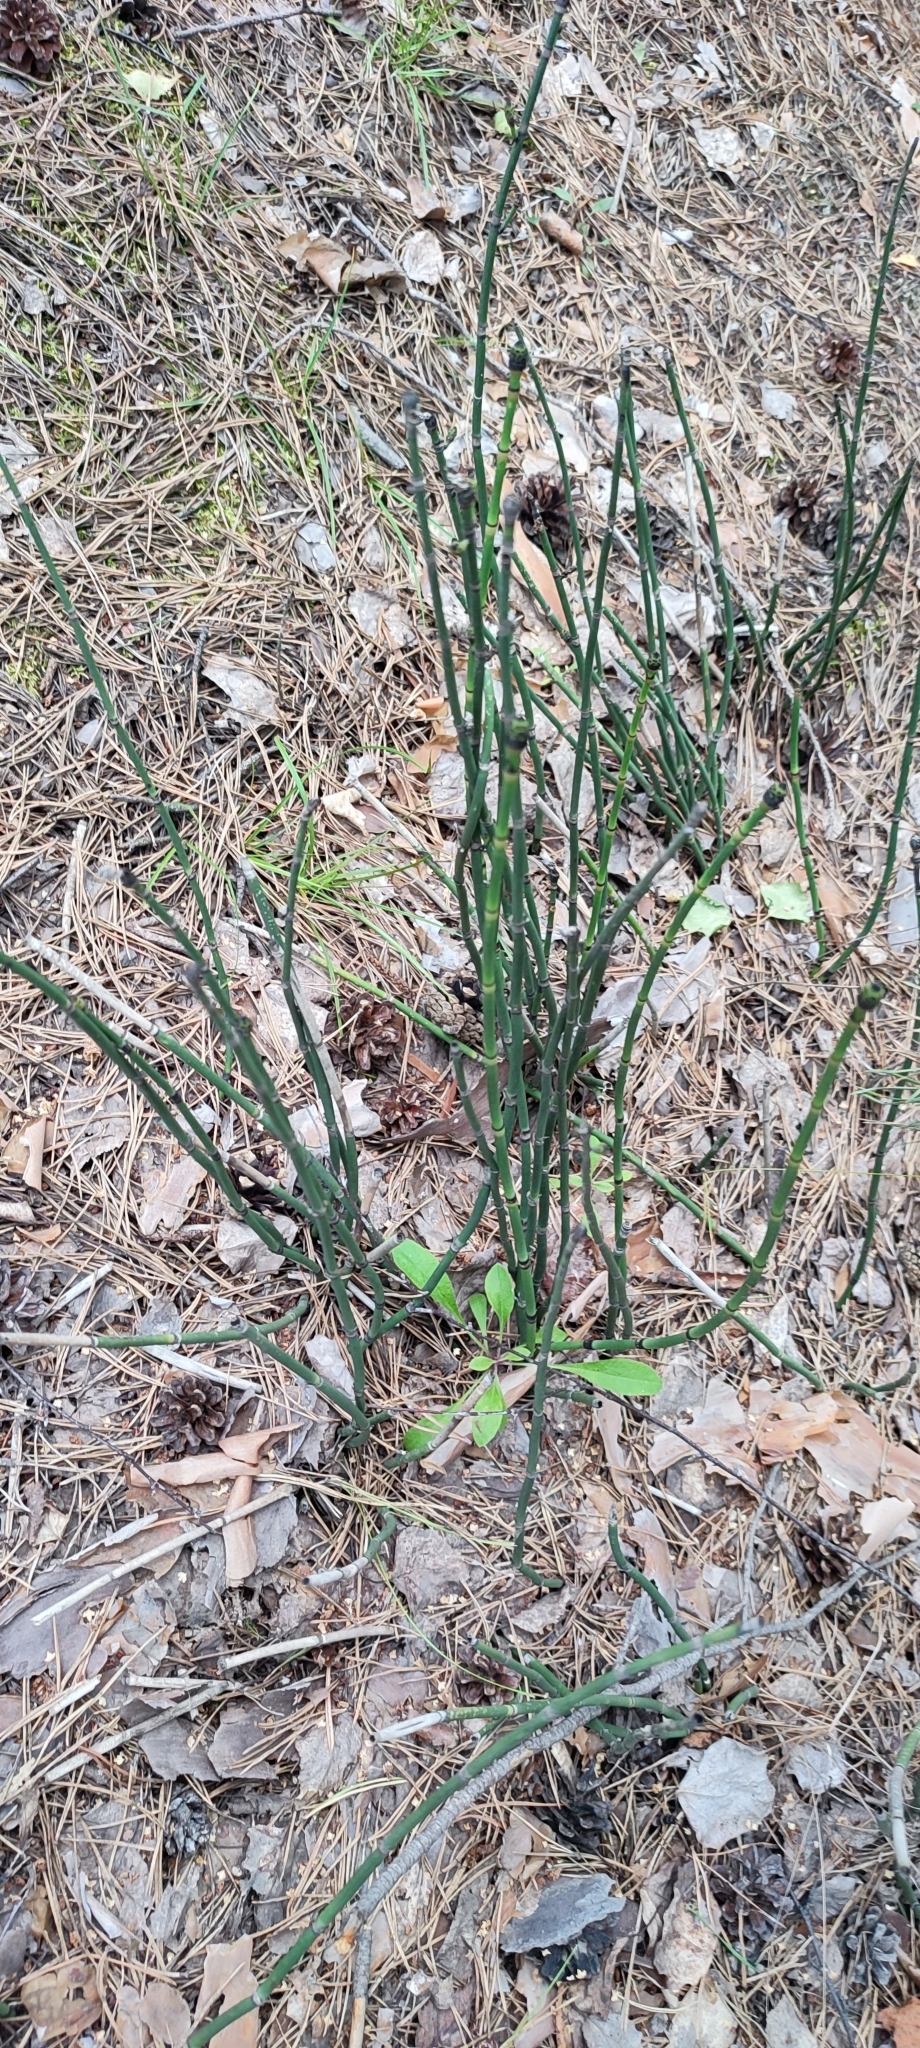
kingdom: Plantae
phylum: Tracheophyta
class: Polypodiopsida
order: Equisetales
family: Equisetaceae
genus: Equisetum
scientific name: Equisetum hyemale
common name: Rough horsetail
